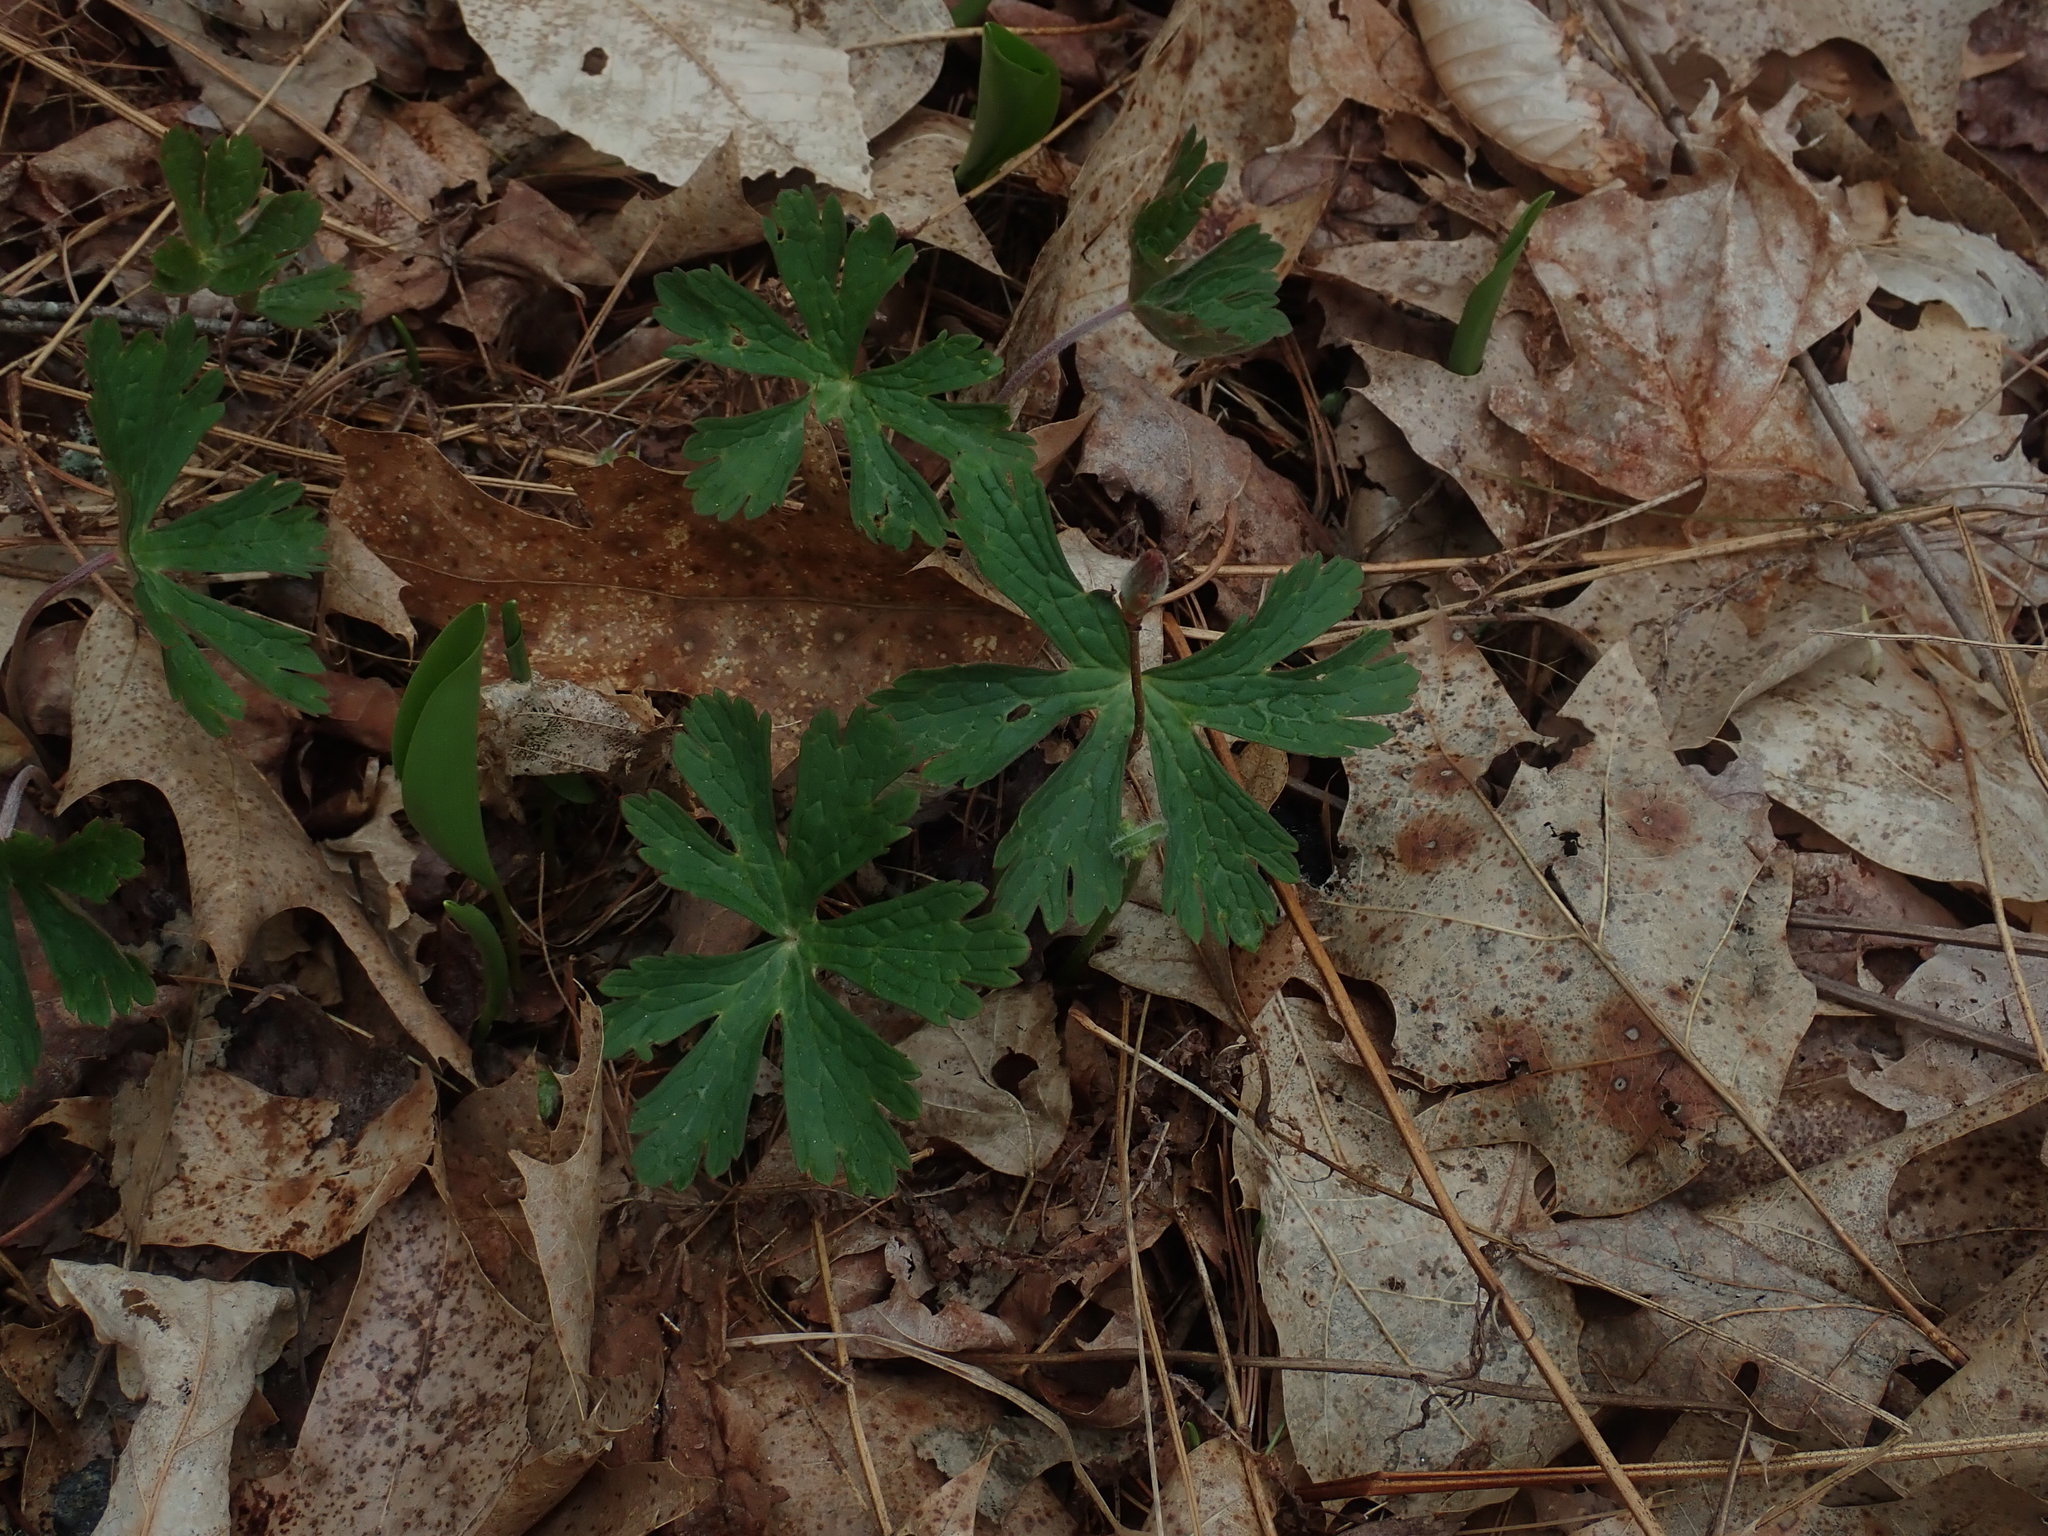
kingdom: Plantae
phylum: Tracheophyta
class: Magnoliopsida
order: Geraniales
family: Geraniaceae
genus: Geranium
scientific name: Geranium maculatum
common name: Spotted geranium
